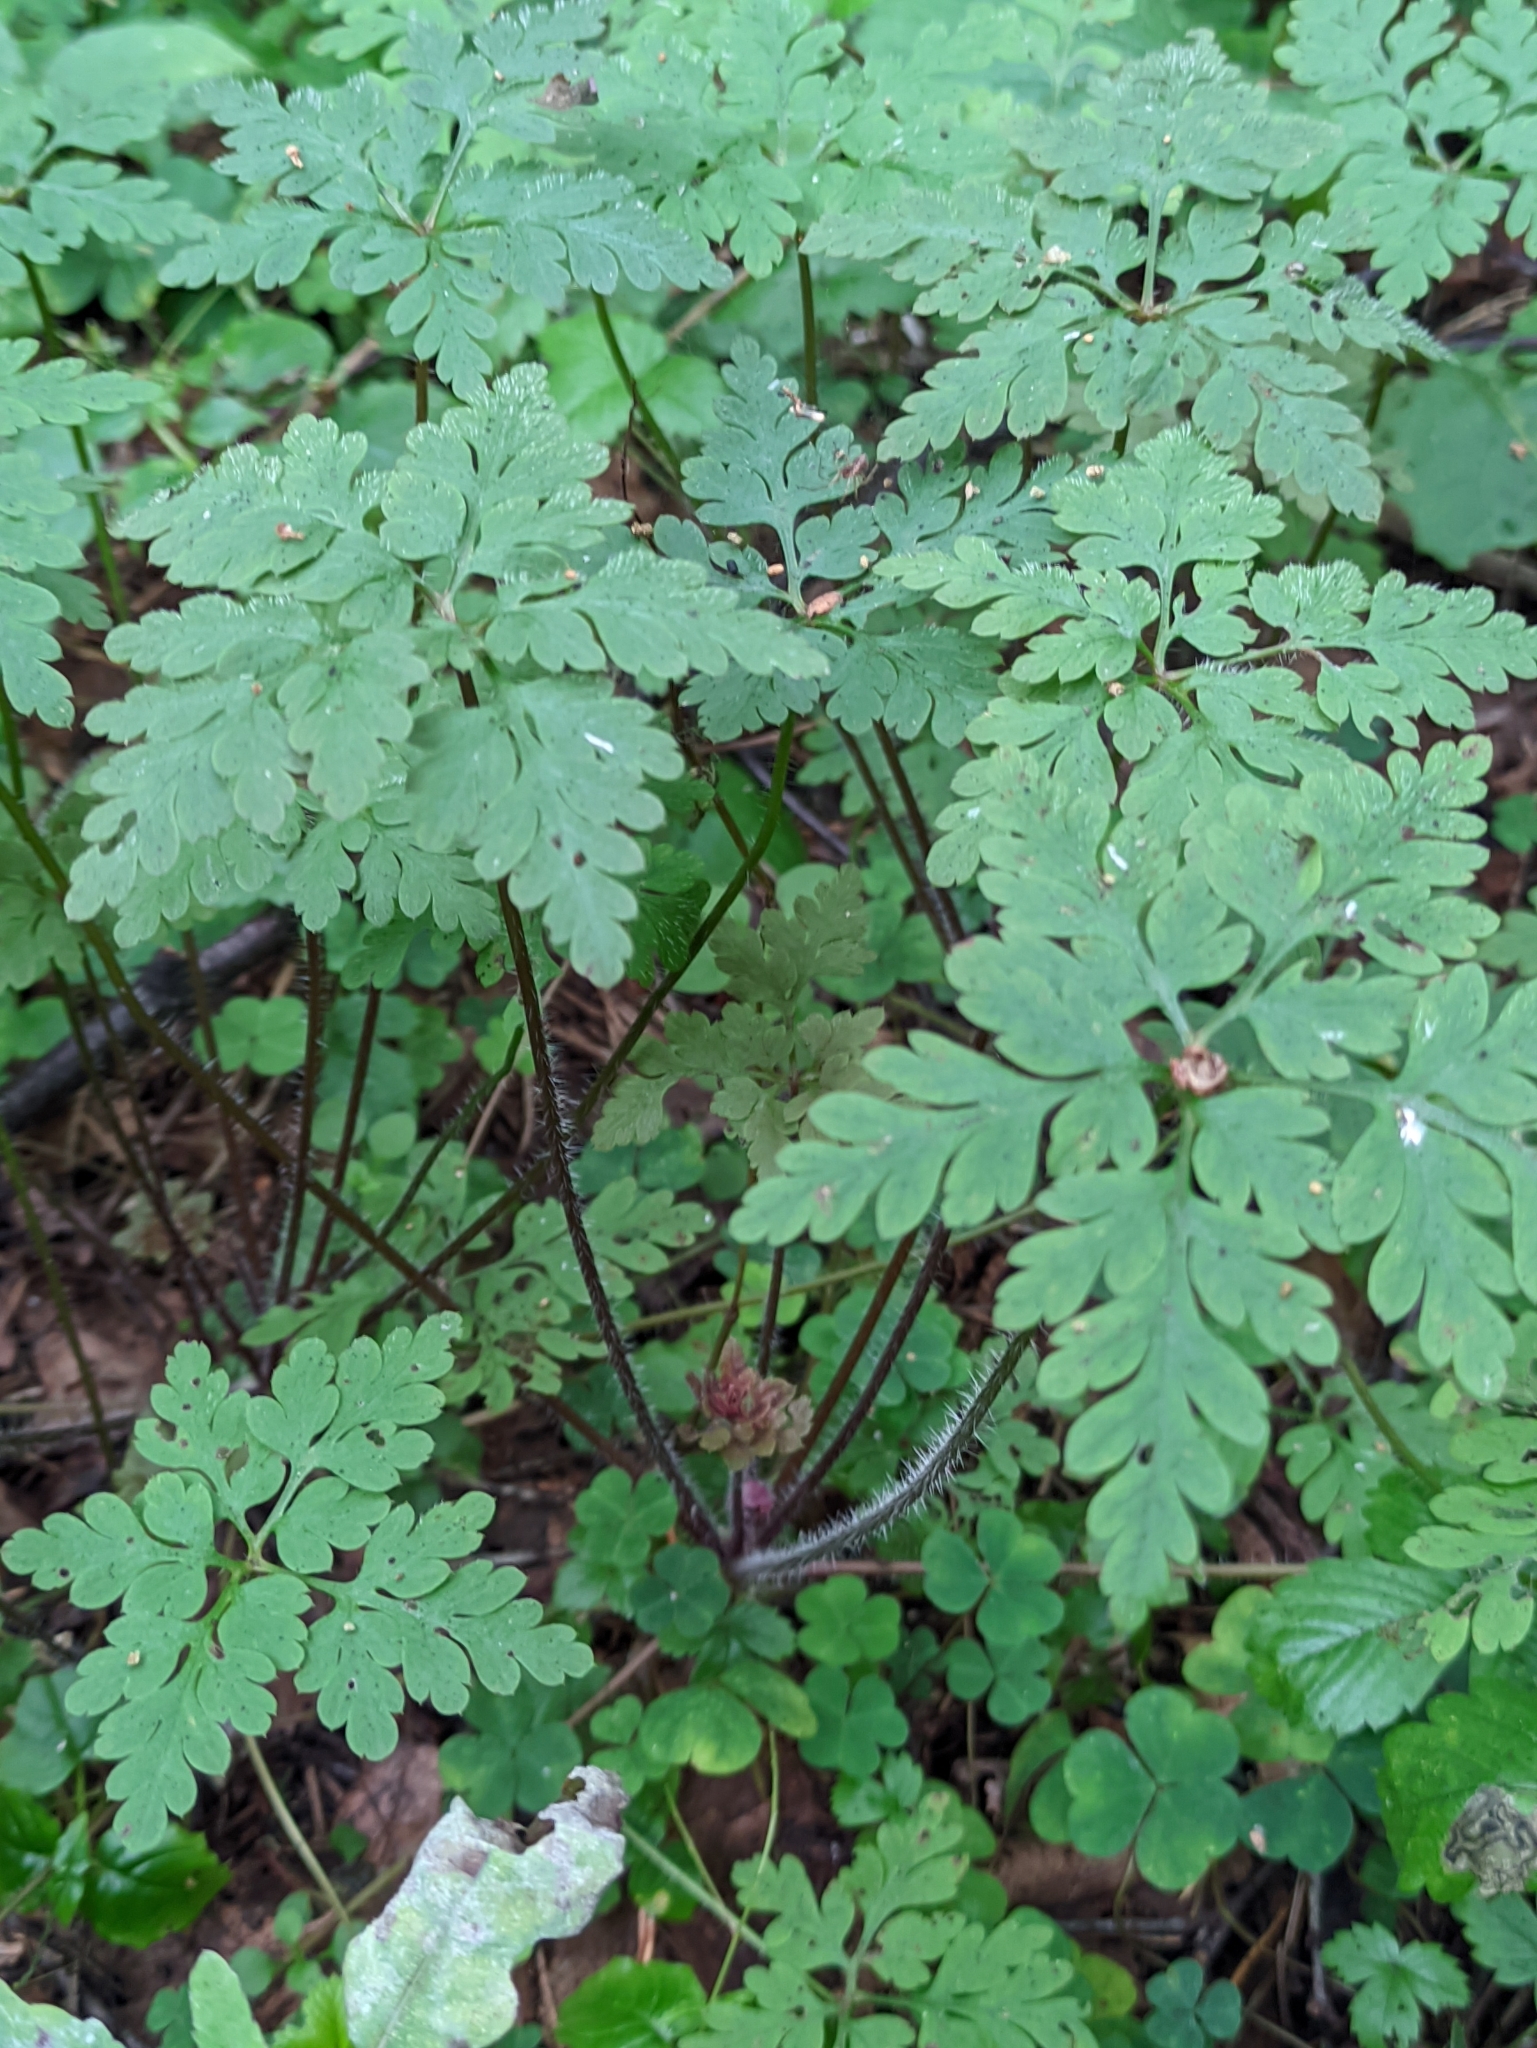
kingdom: Plantae
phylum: Tracheophyta
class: Magnoliopsida
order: Geraniales
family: Geraniaceae
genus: Geranium
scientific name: Geranium robertianum
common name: Herb-robert
